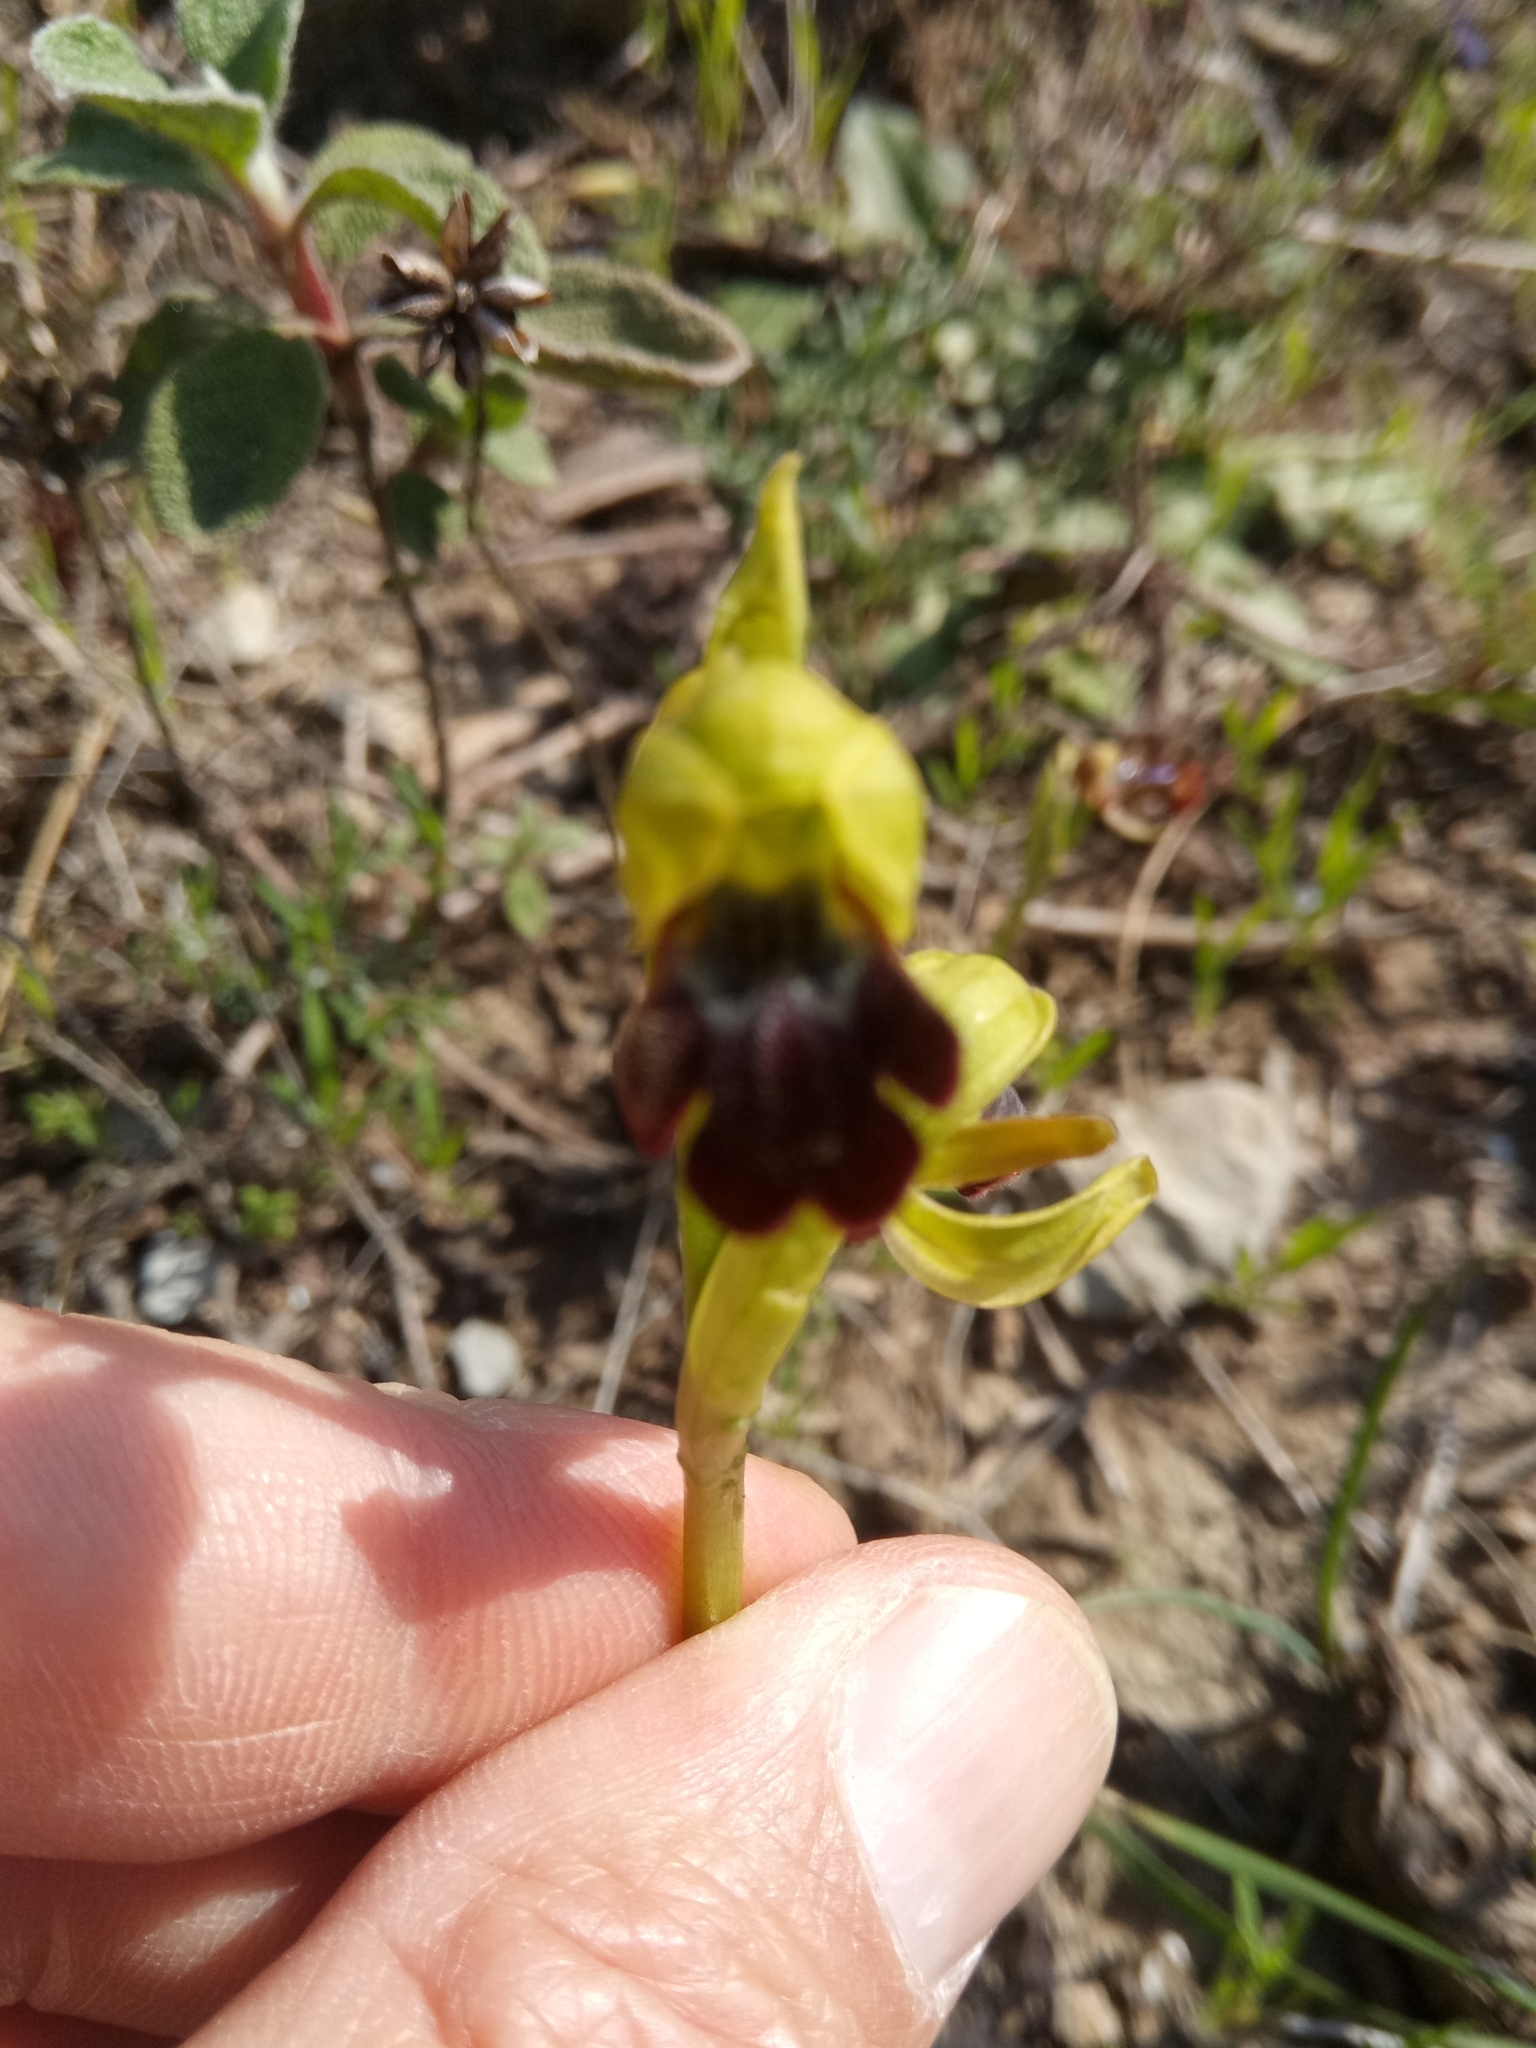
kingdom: Plantae
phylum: Tracheophyta
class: Liliopsida
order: Asparagales
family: Orchidaceae
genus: Ophrys
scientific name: Ophrys fusca
